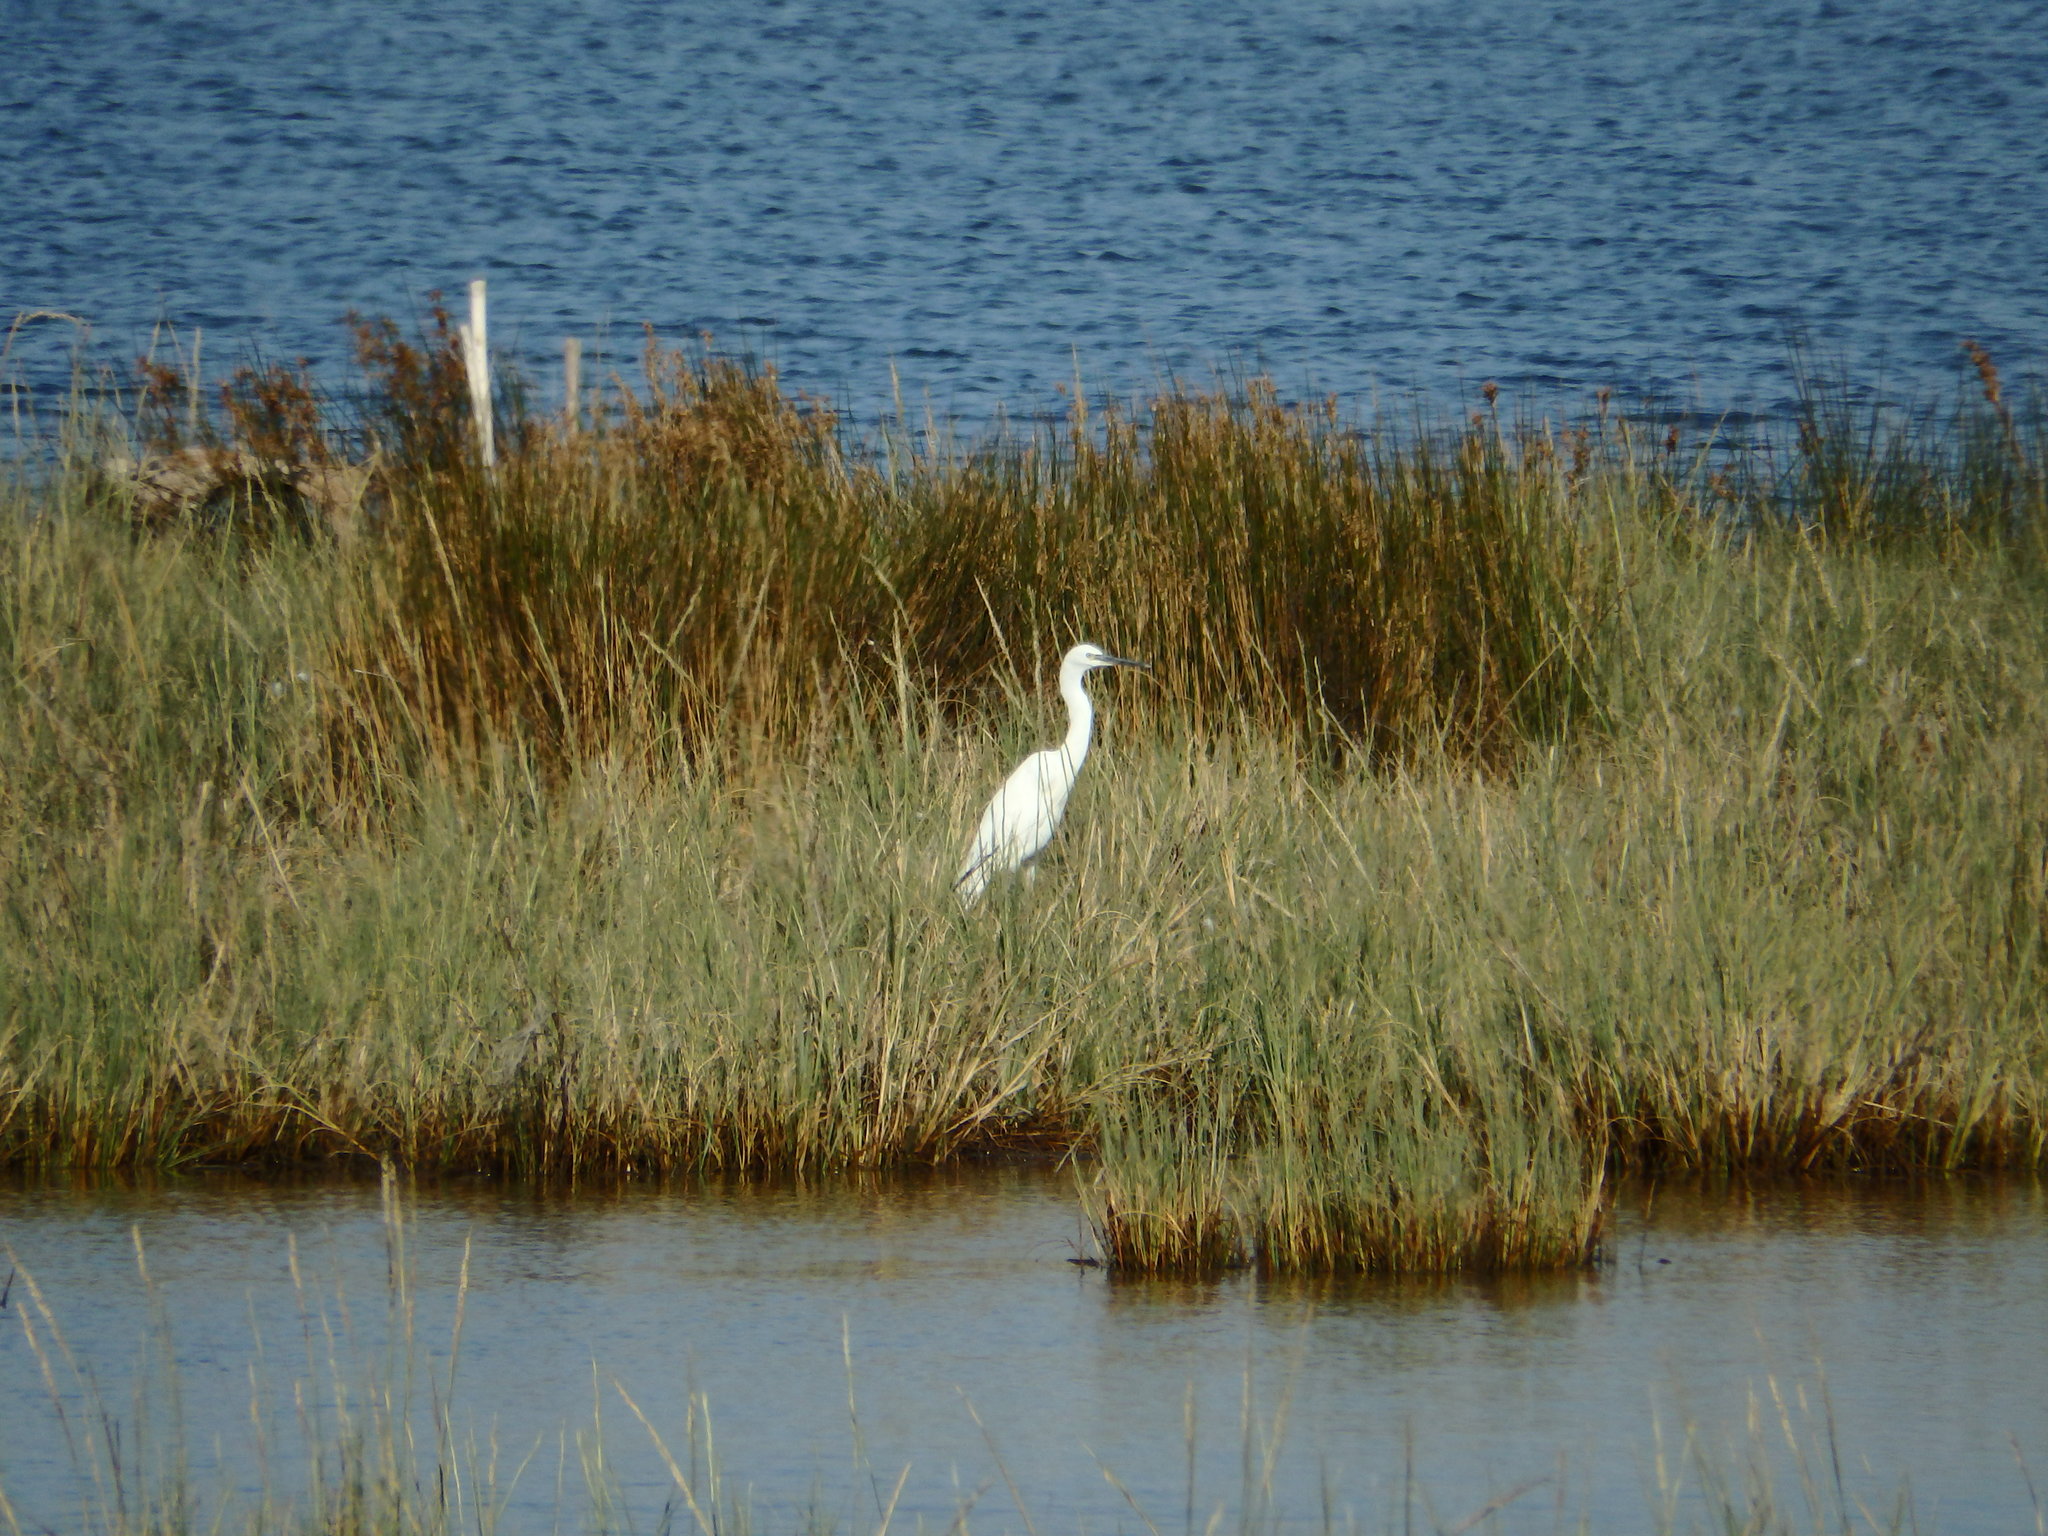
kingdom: Animalia
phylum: Chordata
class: Aves
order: Pelecaniformes
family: Ardeidae
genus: Egretta
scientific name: Egretta garzetta
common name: Little egret
